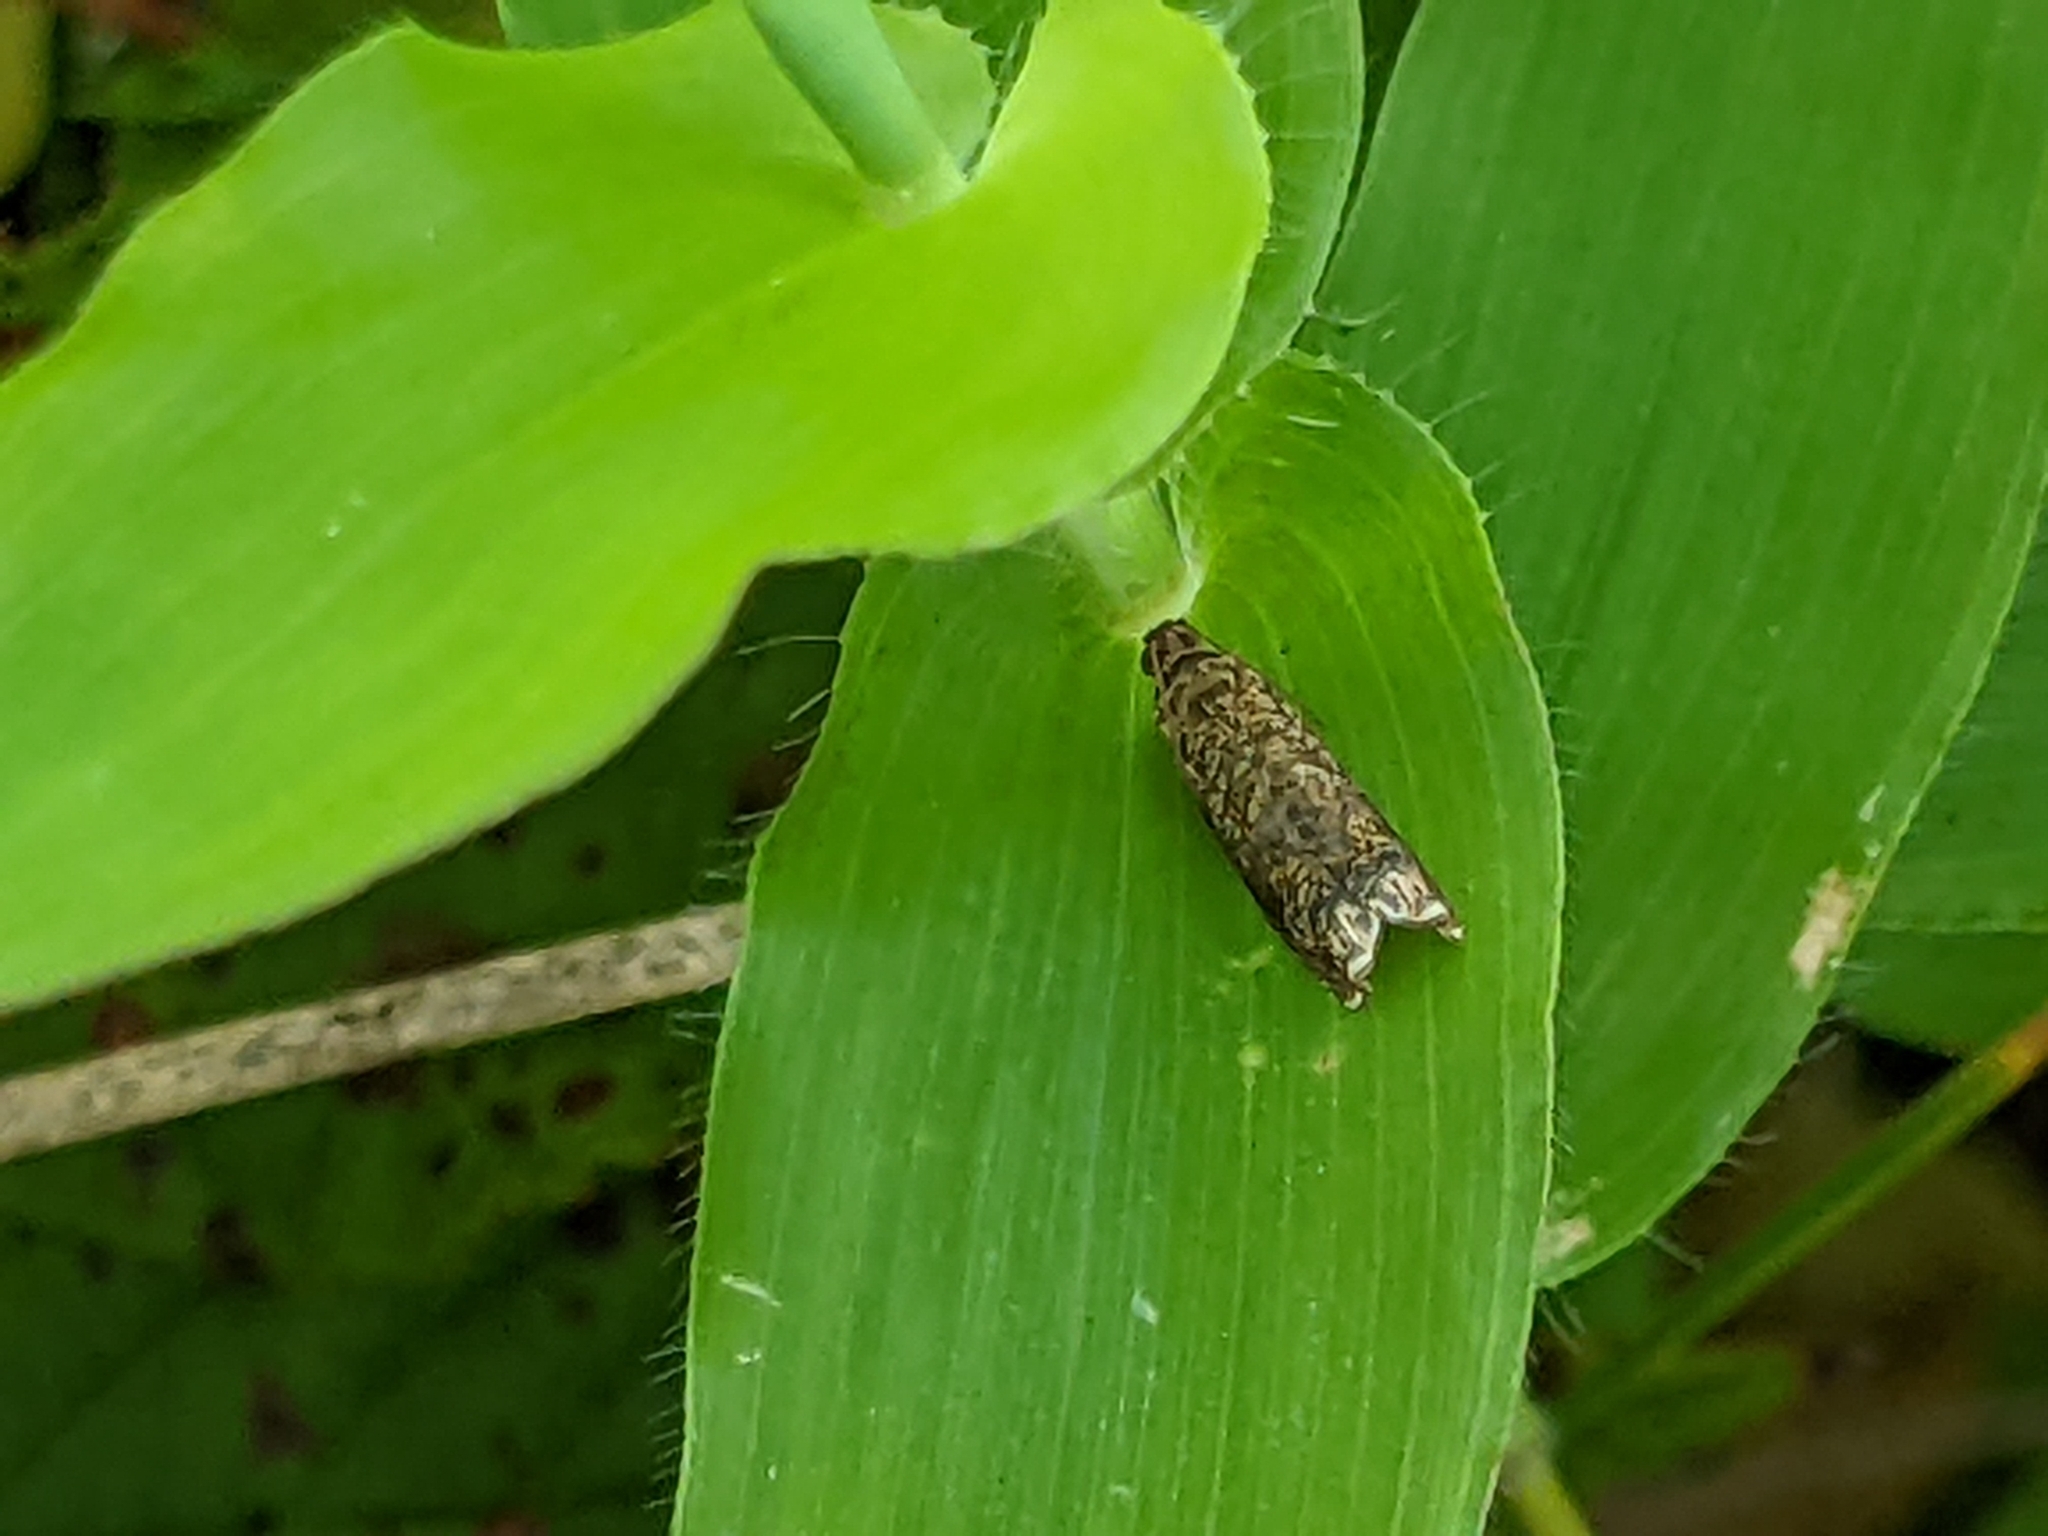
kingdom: Animalia
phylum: Arthropoda
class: Insecta
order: Lepidoptera
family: Tortricidae
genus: Episimus
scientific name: Episimus argutana
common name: Sumac leaftier moth
